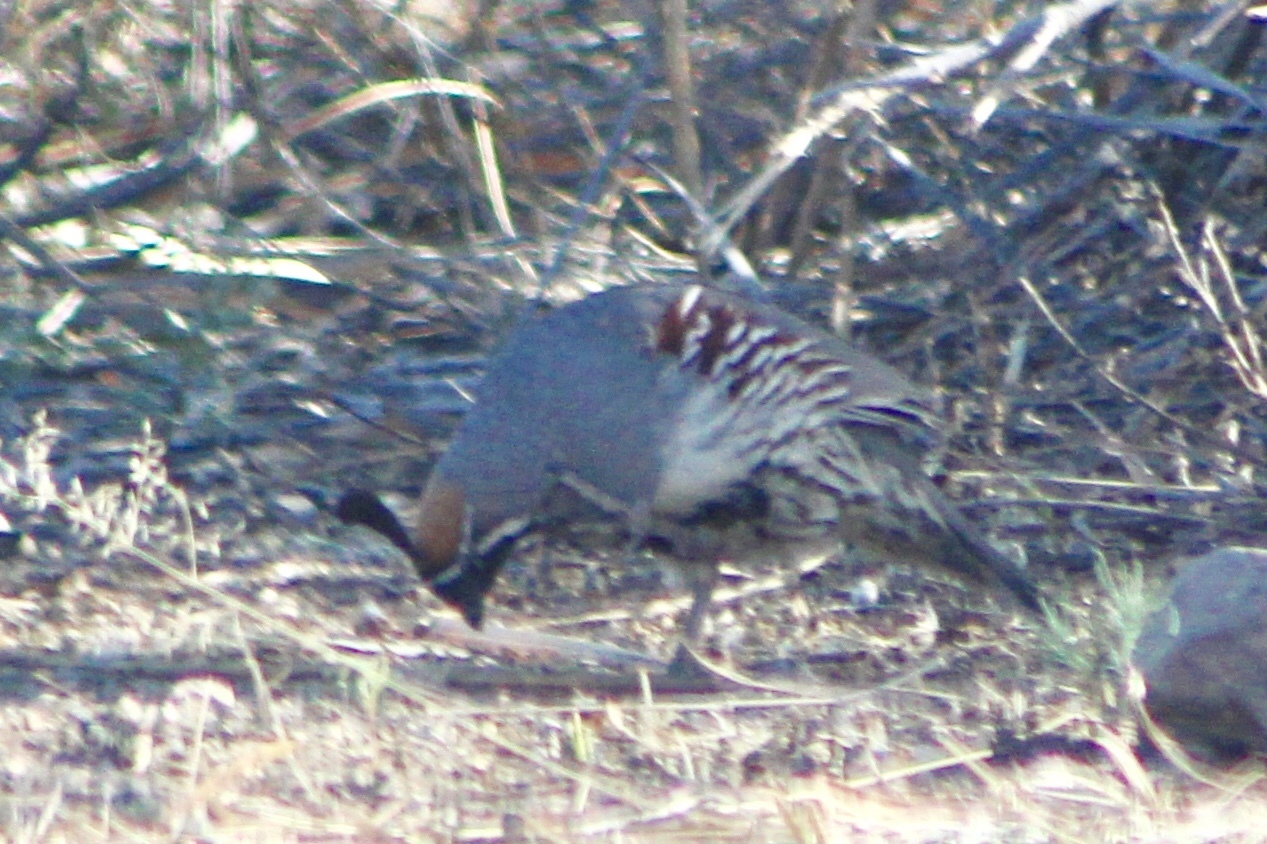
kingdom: Animalia
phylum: Chordata
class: Aves
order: Galliformes
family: Odontophoridae
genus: Callipepla
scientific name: Callipepla gambelii
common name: Gambel's quail
